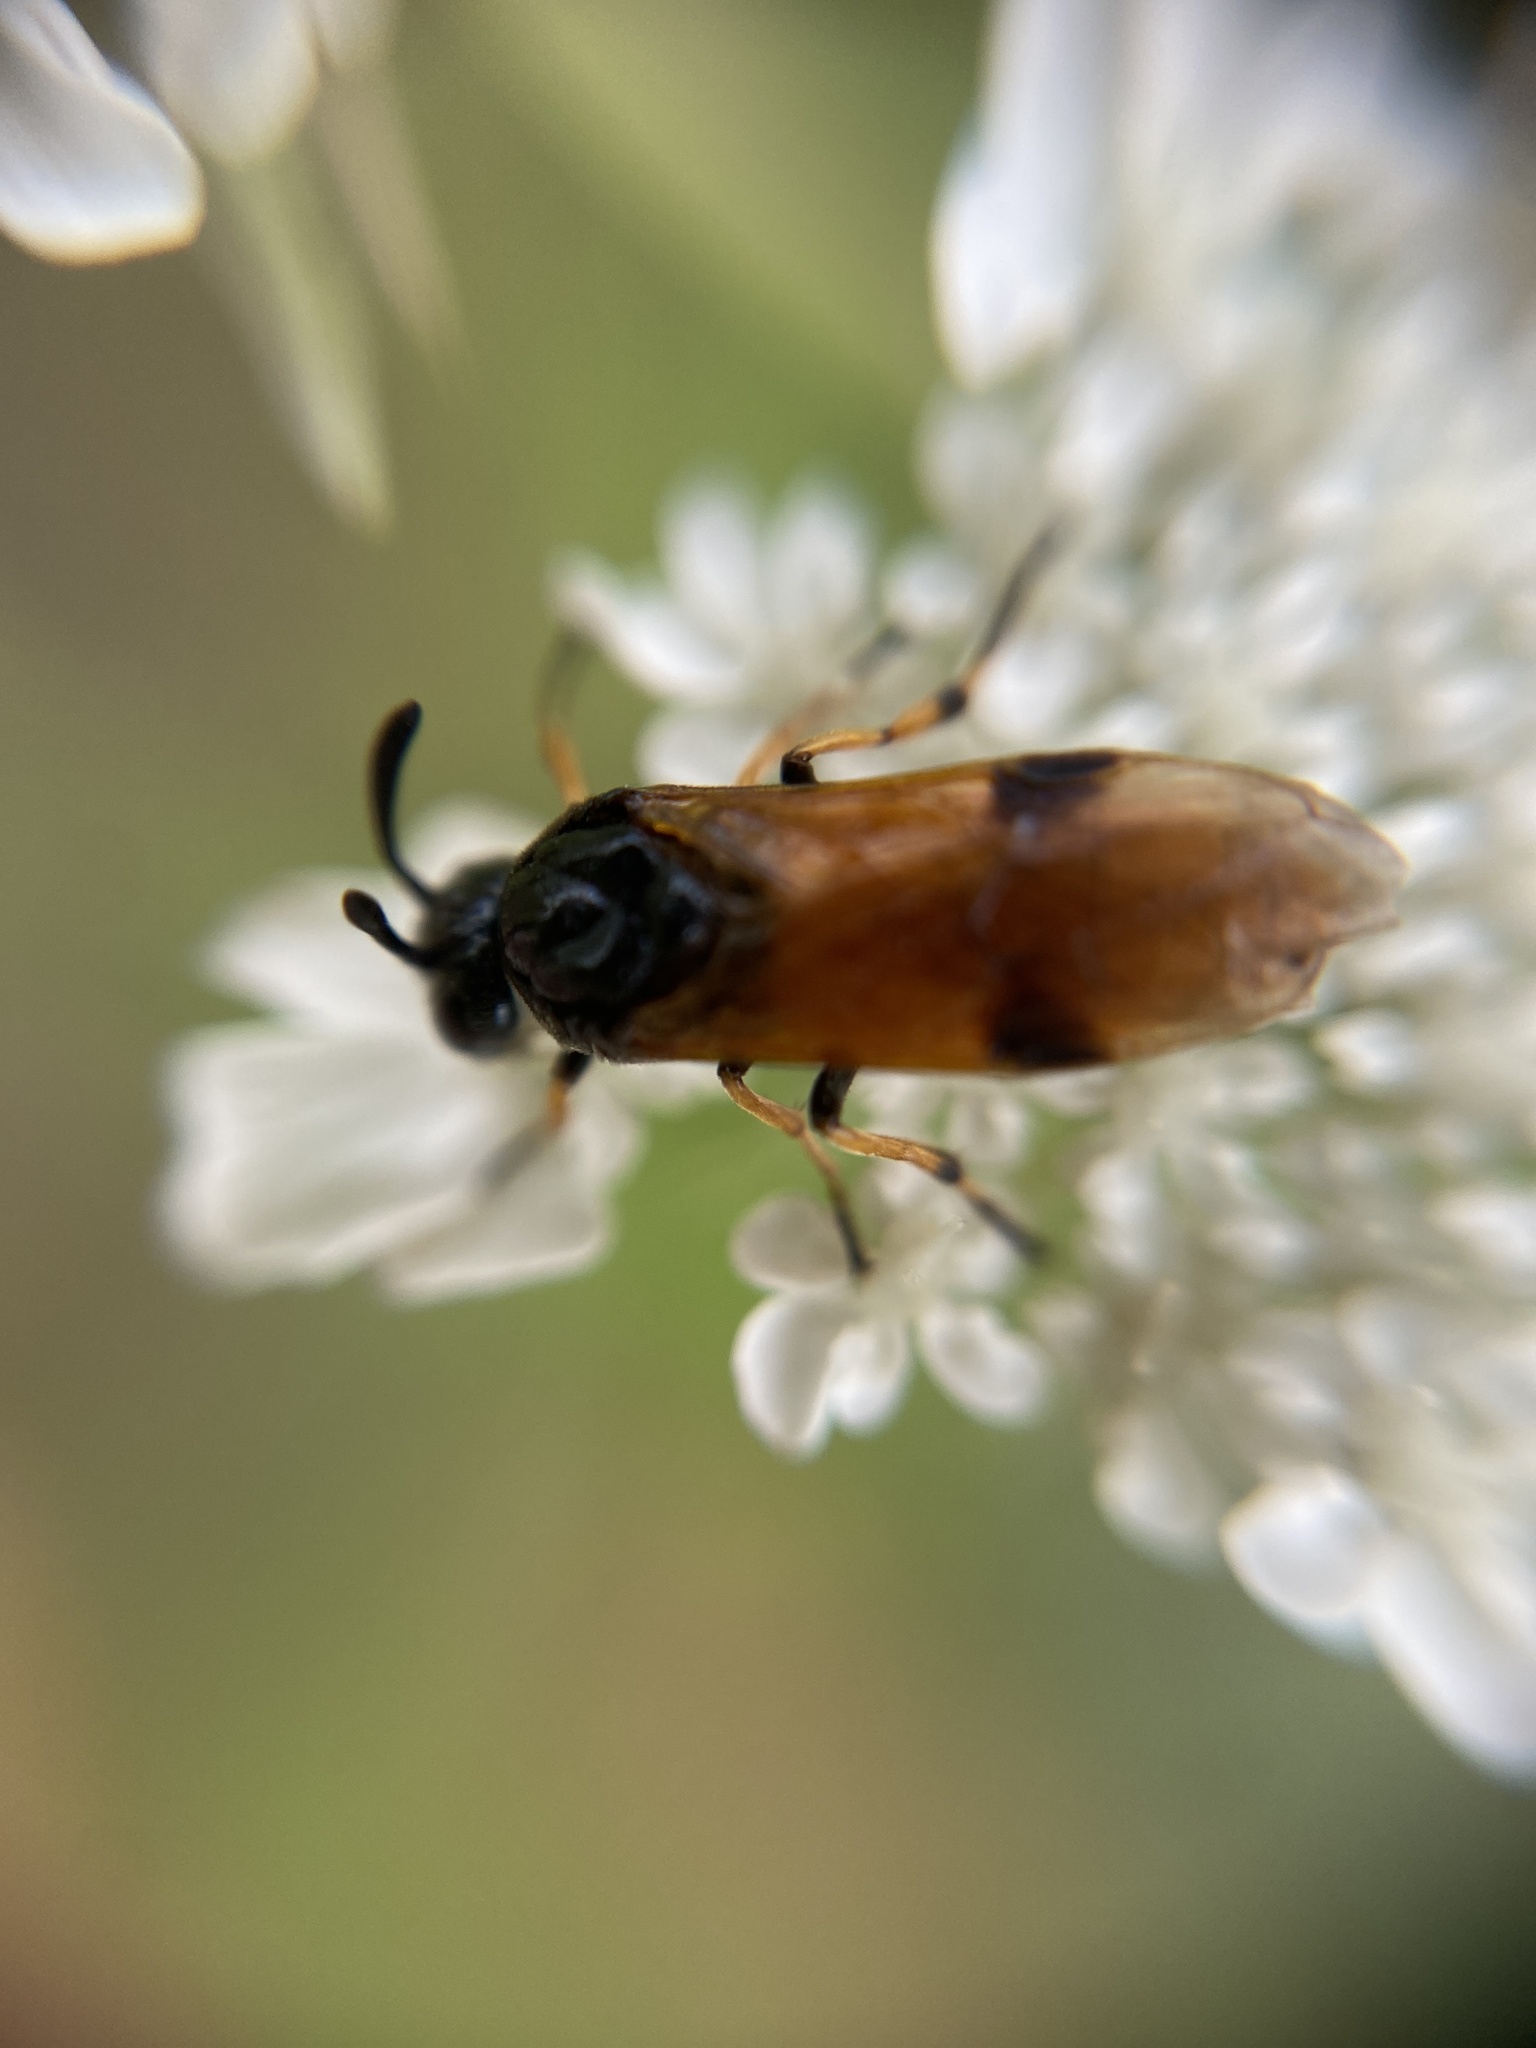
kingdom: Animalia
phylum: Arthropoda
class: Insecta
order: Hymenoptera
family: Argidae
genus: Arge
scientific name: Arge melanochra
